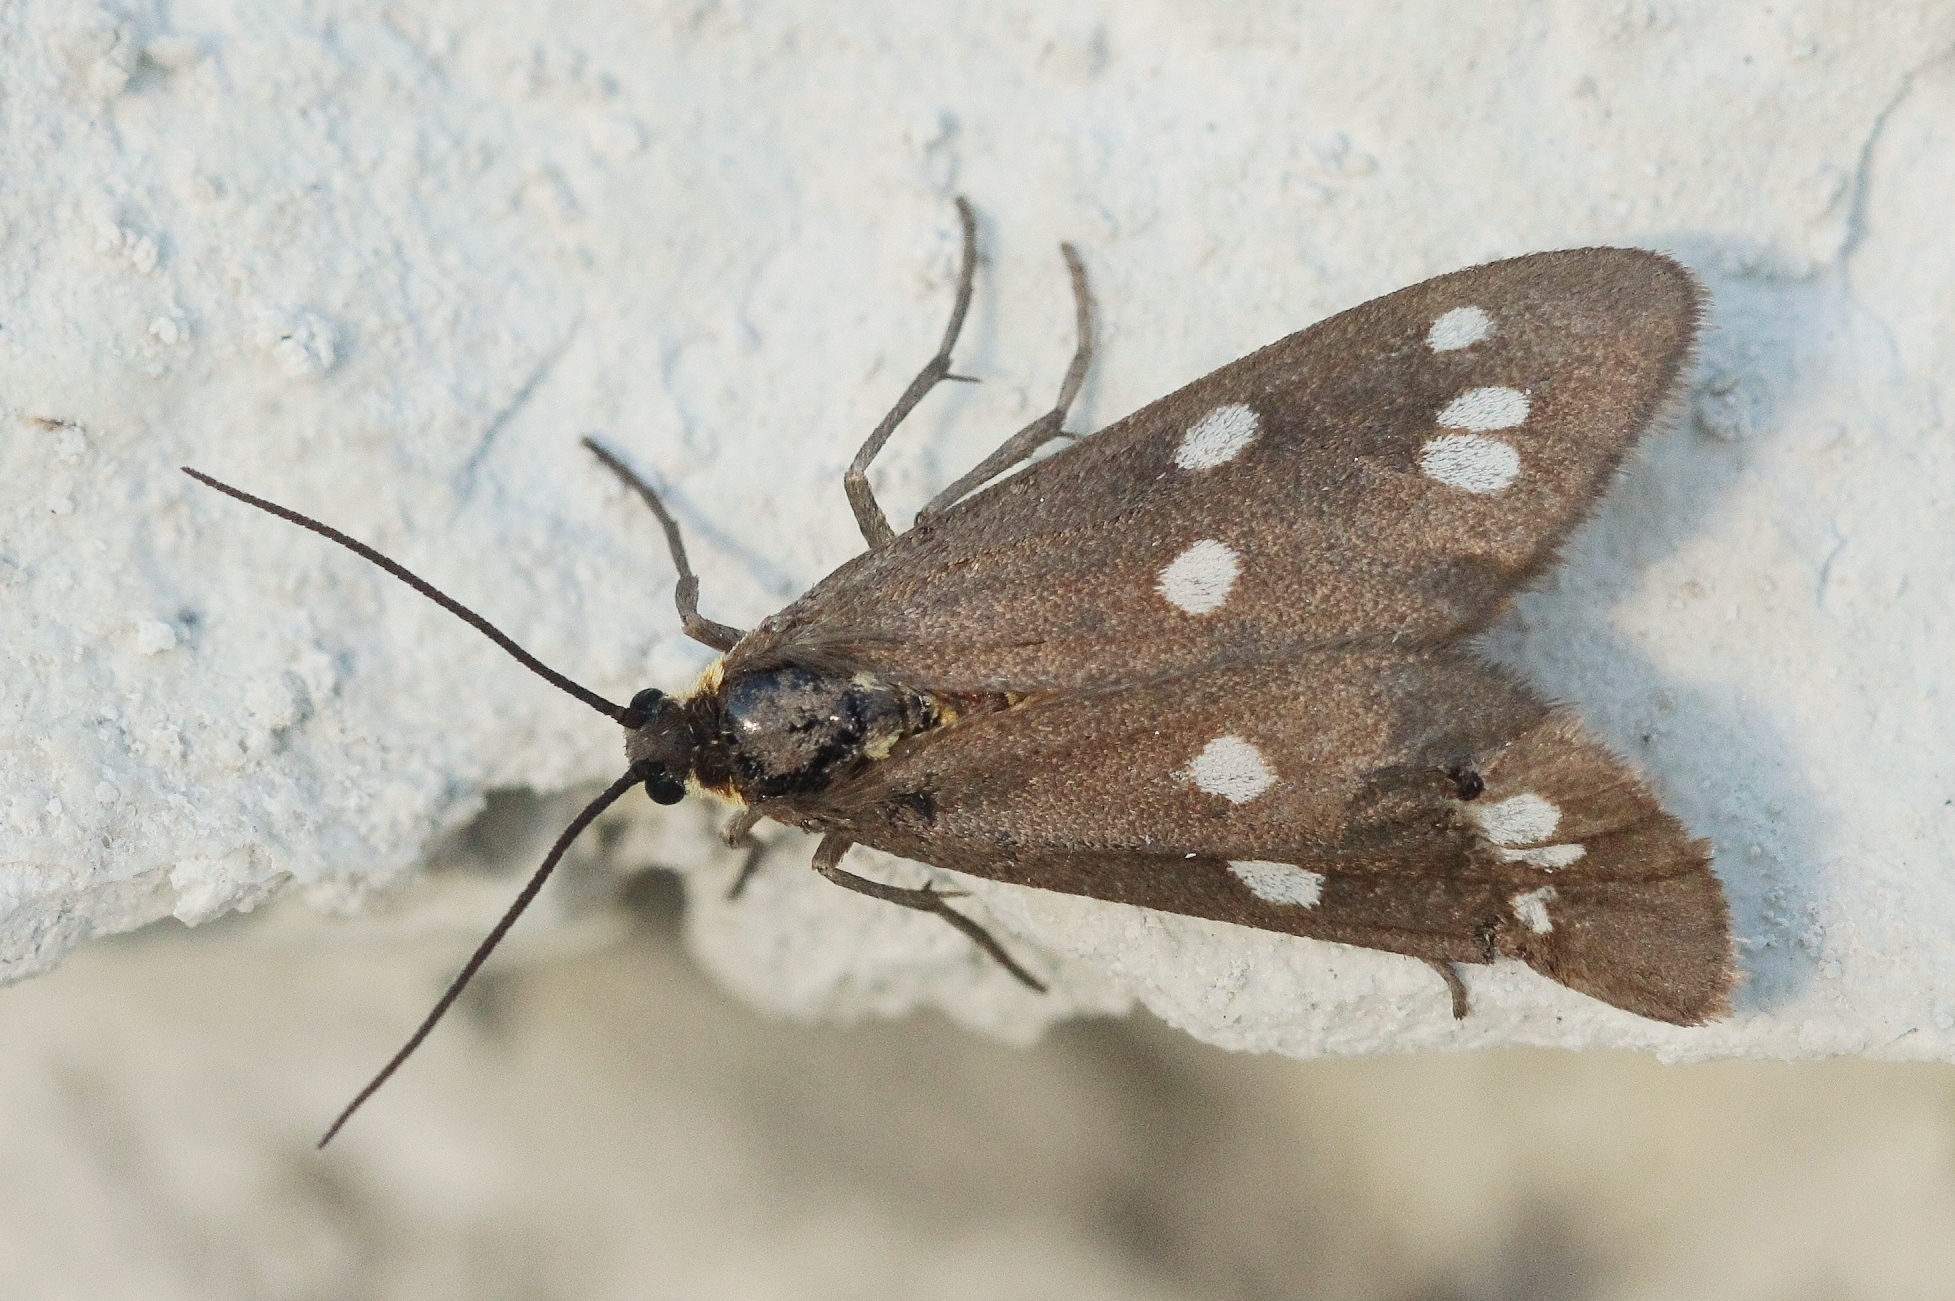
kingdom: Animalia
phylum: Arthropoda
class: Insecta
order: Lepidoptera
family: Erebidae
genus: Dysauxes
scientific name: Dysauxes punctata
